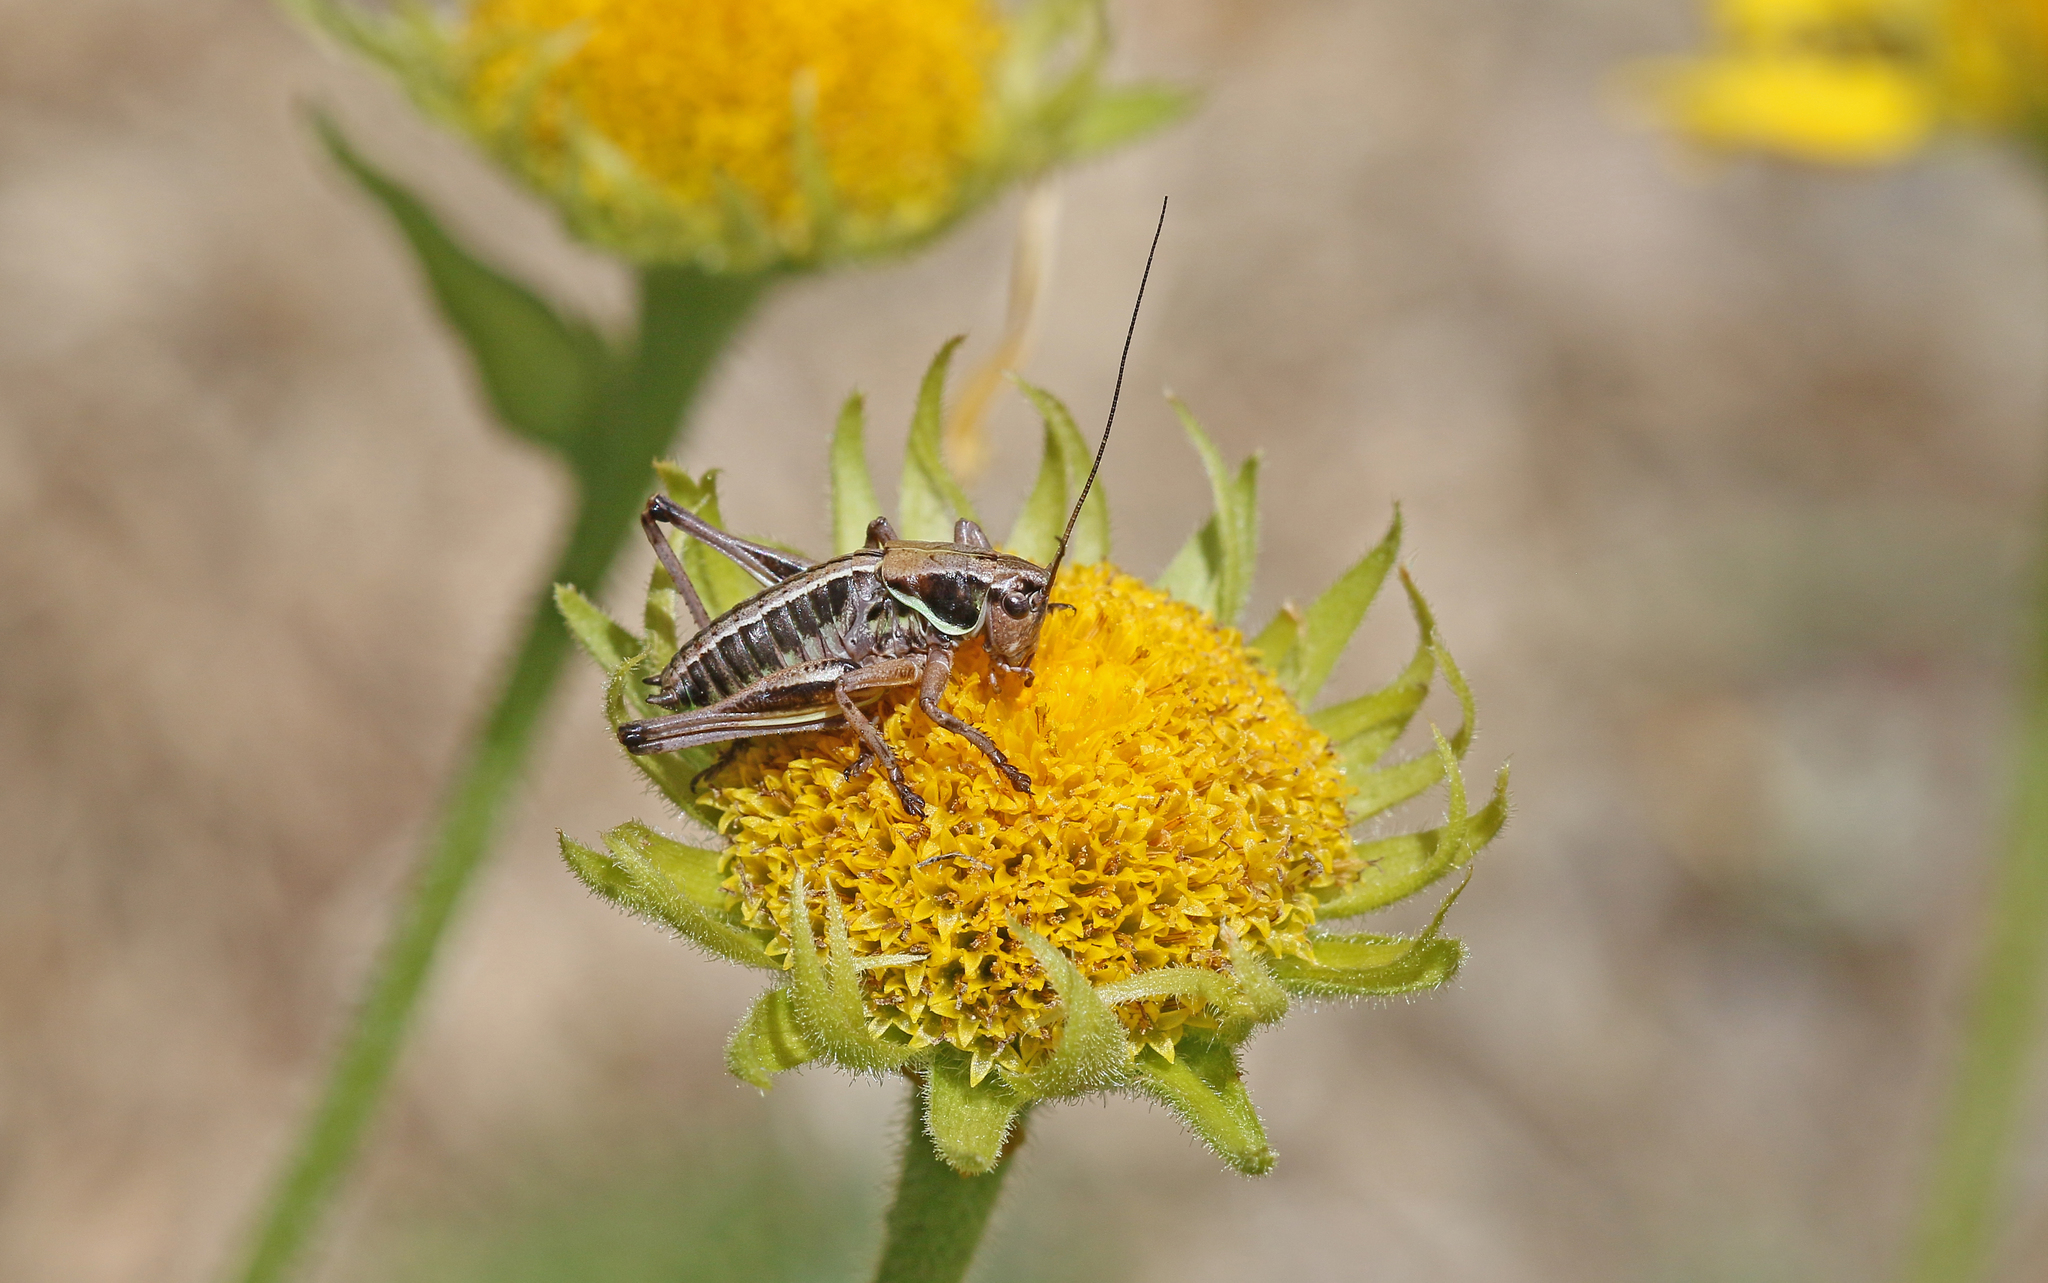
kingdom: Animalia
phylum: Arthropoda
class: Insecta
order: Orthoptera
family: Tettigoniidae
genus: Anonconotus
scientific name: Anonconotus occidentalis
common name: Western alpine bush-cricket
